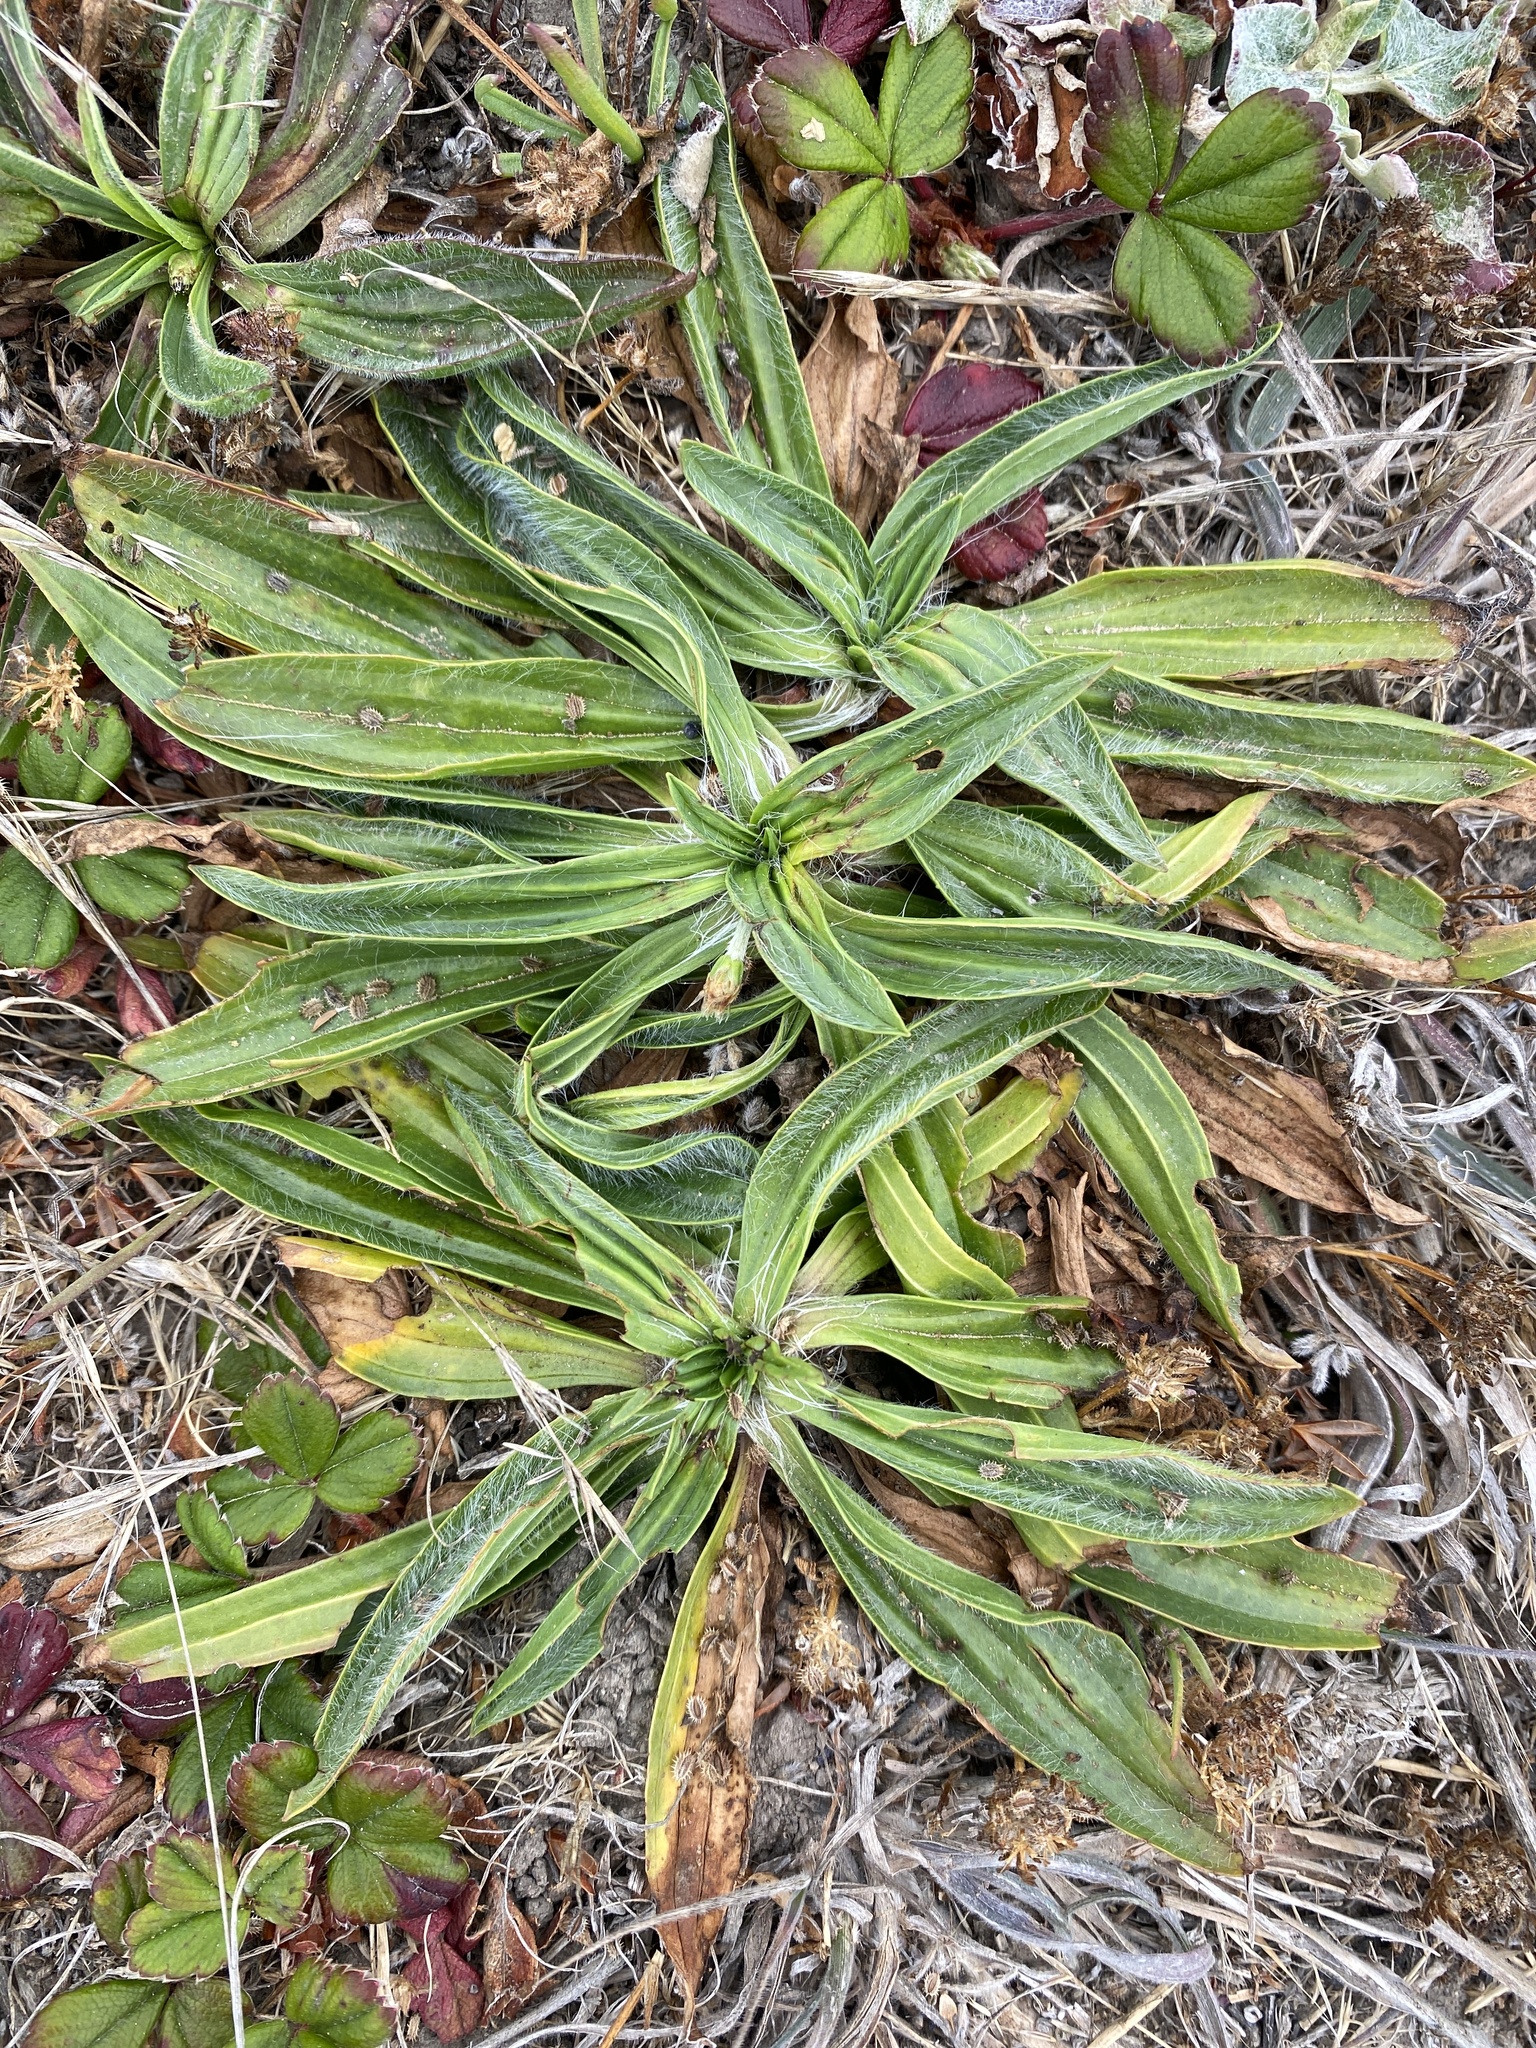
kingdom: Plantae
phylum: Tracheophyta
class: Magnoliopsida
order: Lamiales
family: Plantaginaceae
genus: Plantago
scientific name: Plantago lanceolata
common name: Ribwort plantain
